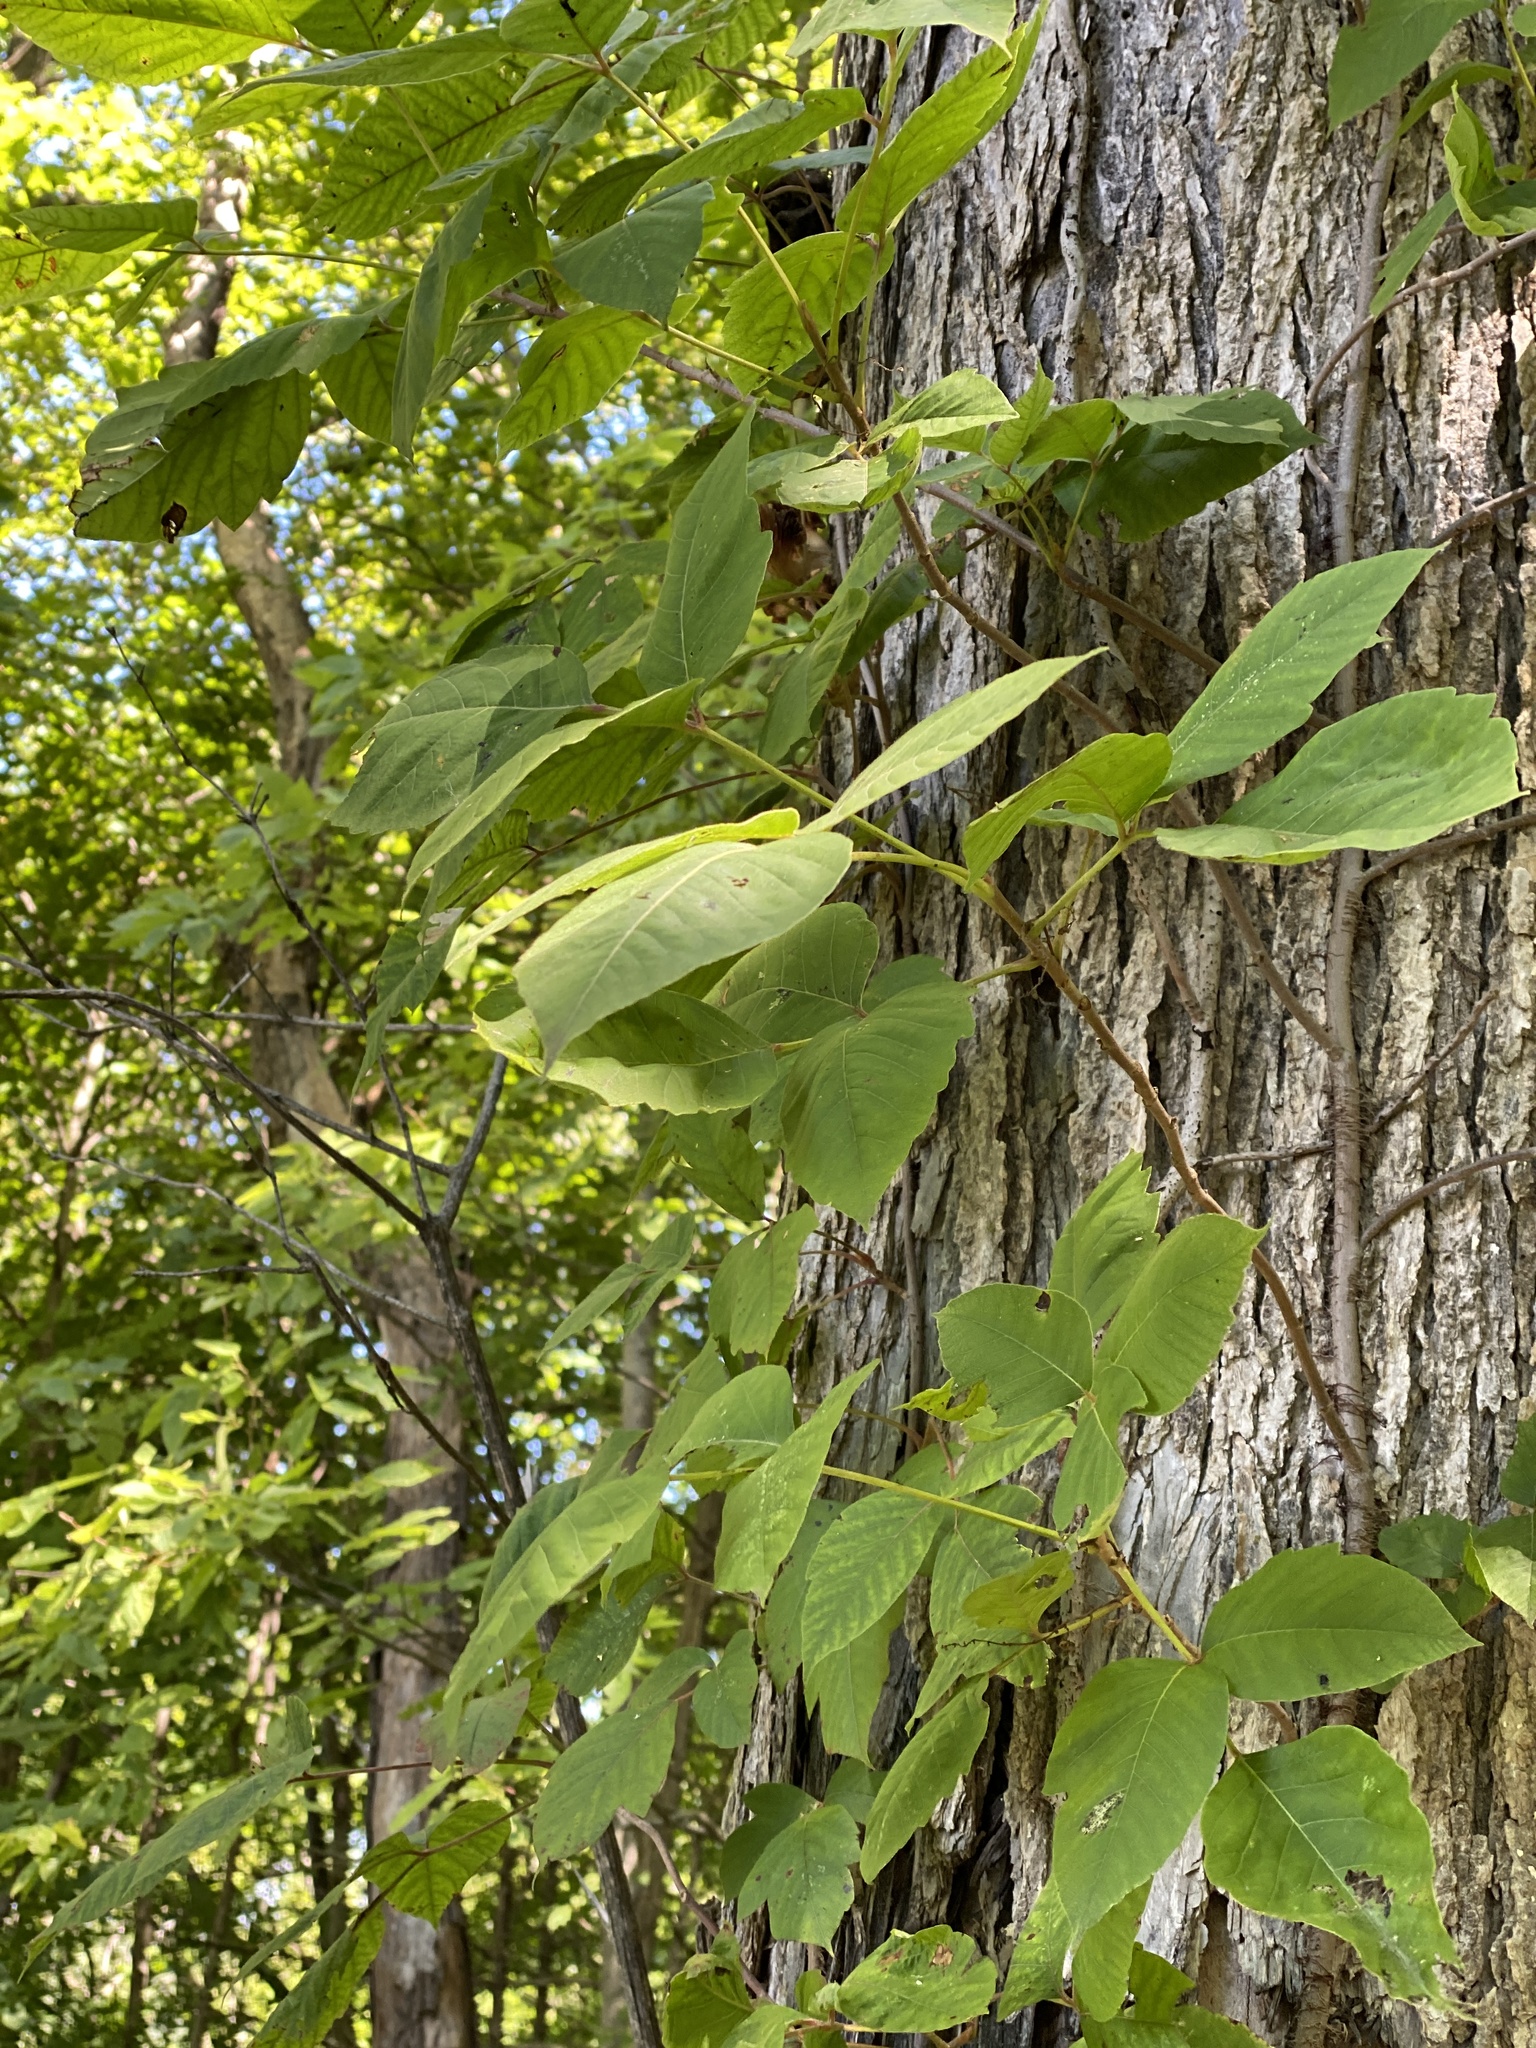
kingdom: Plantae
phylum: Tracheophyta
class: Magnoliopsida
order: Sapindales
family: Anacardiaceae
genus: Toxicodendron
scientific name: Toxicodendron radicans
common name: Poison ivy
